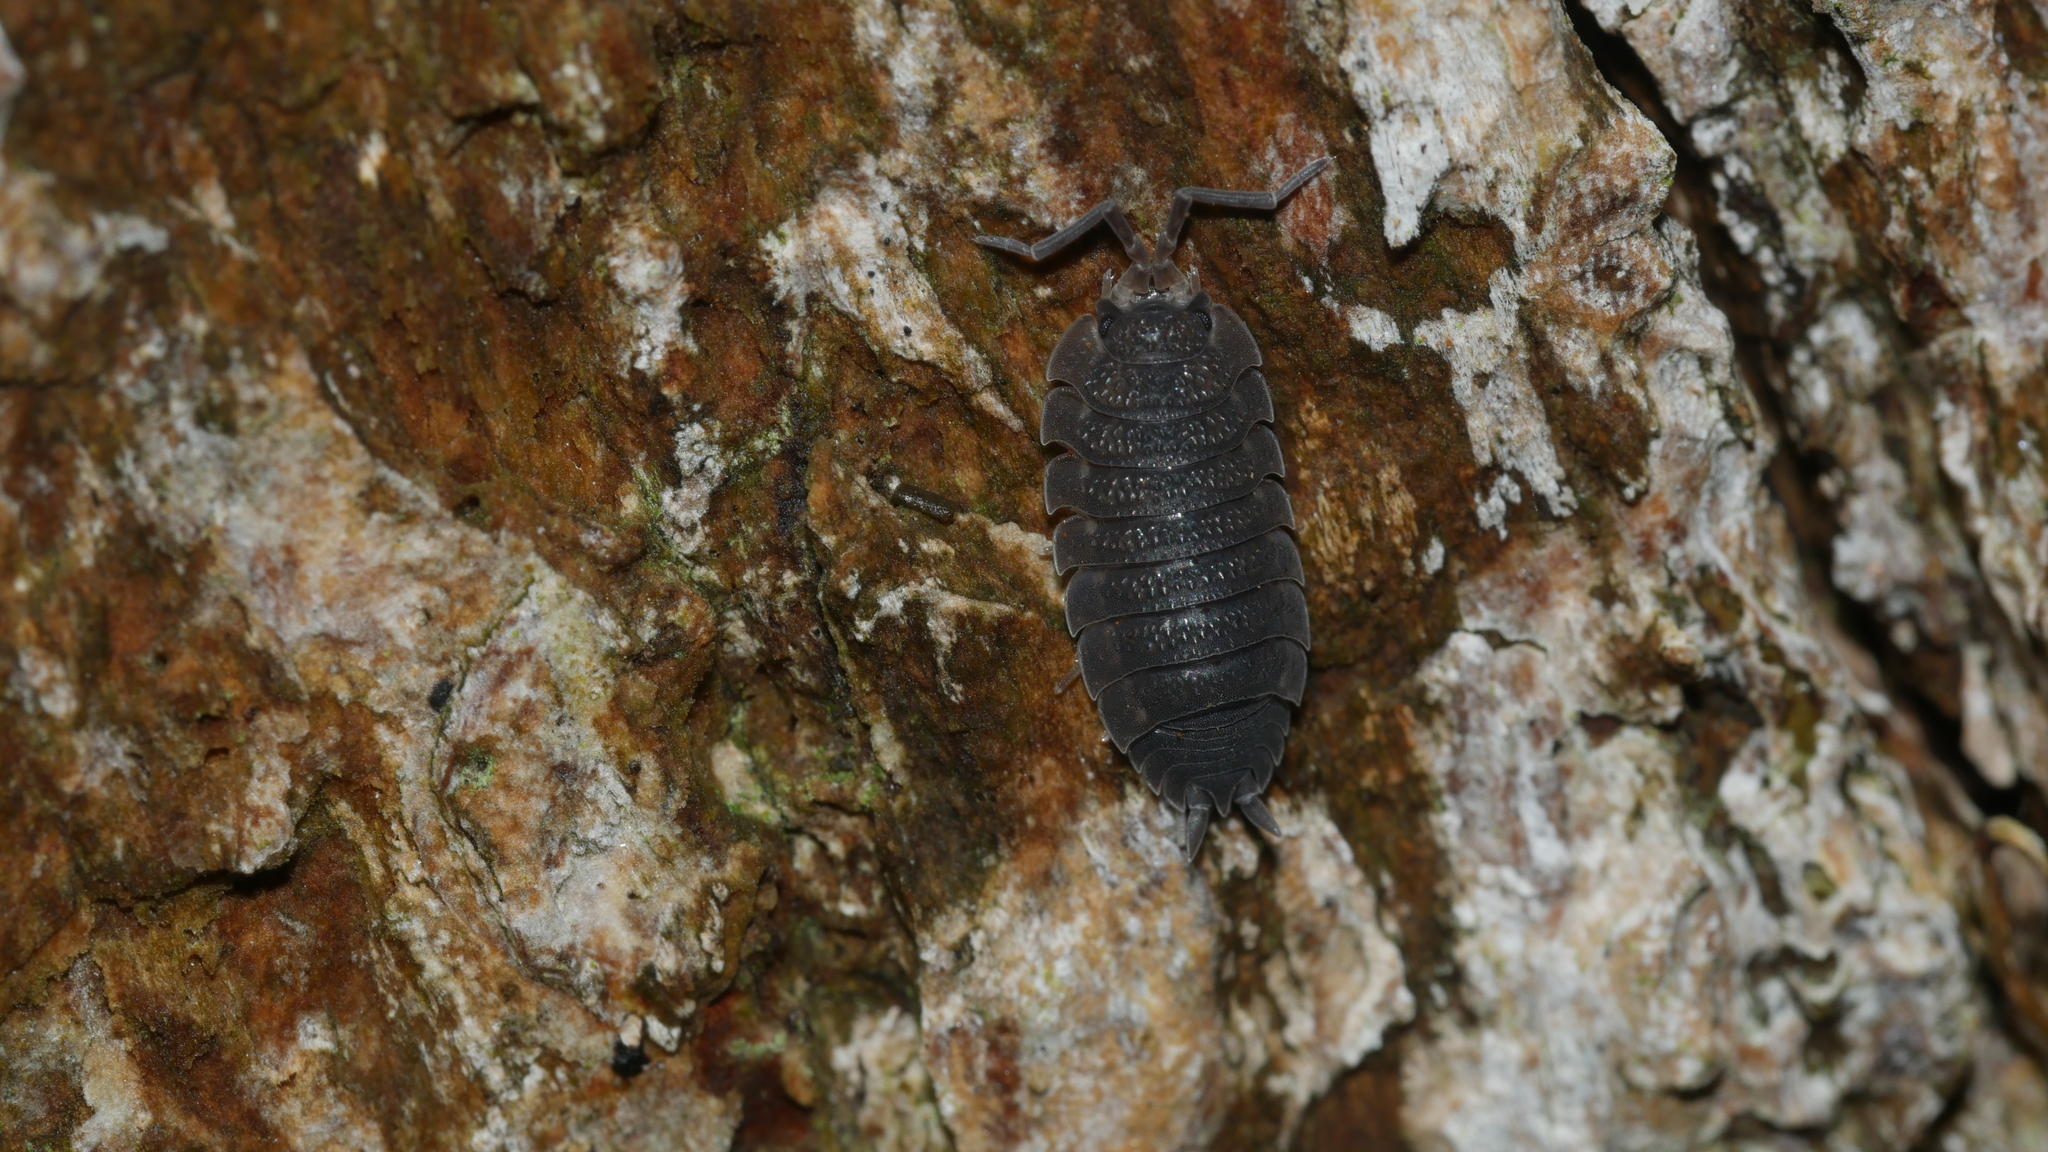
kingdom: Animalia
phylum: Arthropoda
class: Malacostraca
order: Isopoda
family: Porcellionidae
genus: Porcellio
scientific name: Porcellio scaber
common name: Common rough woodlouse
